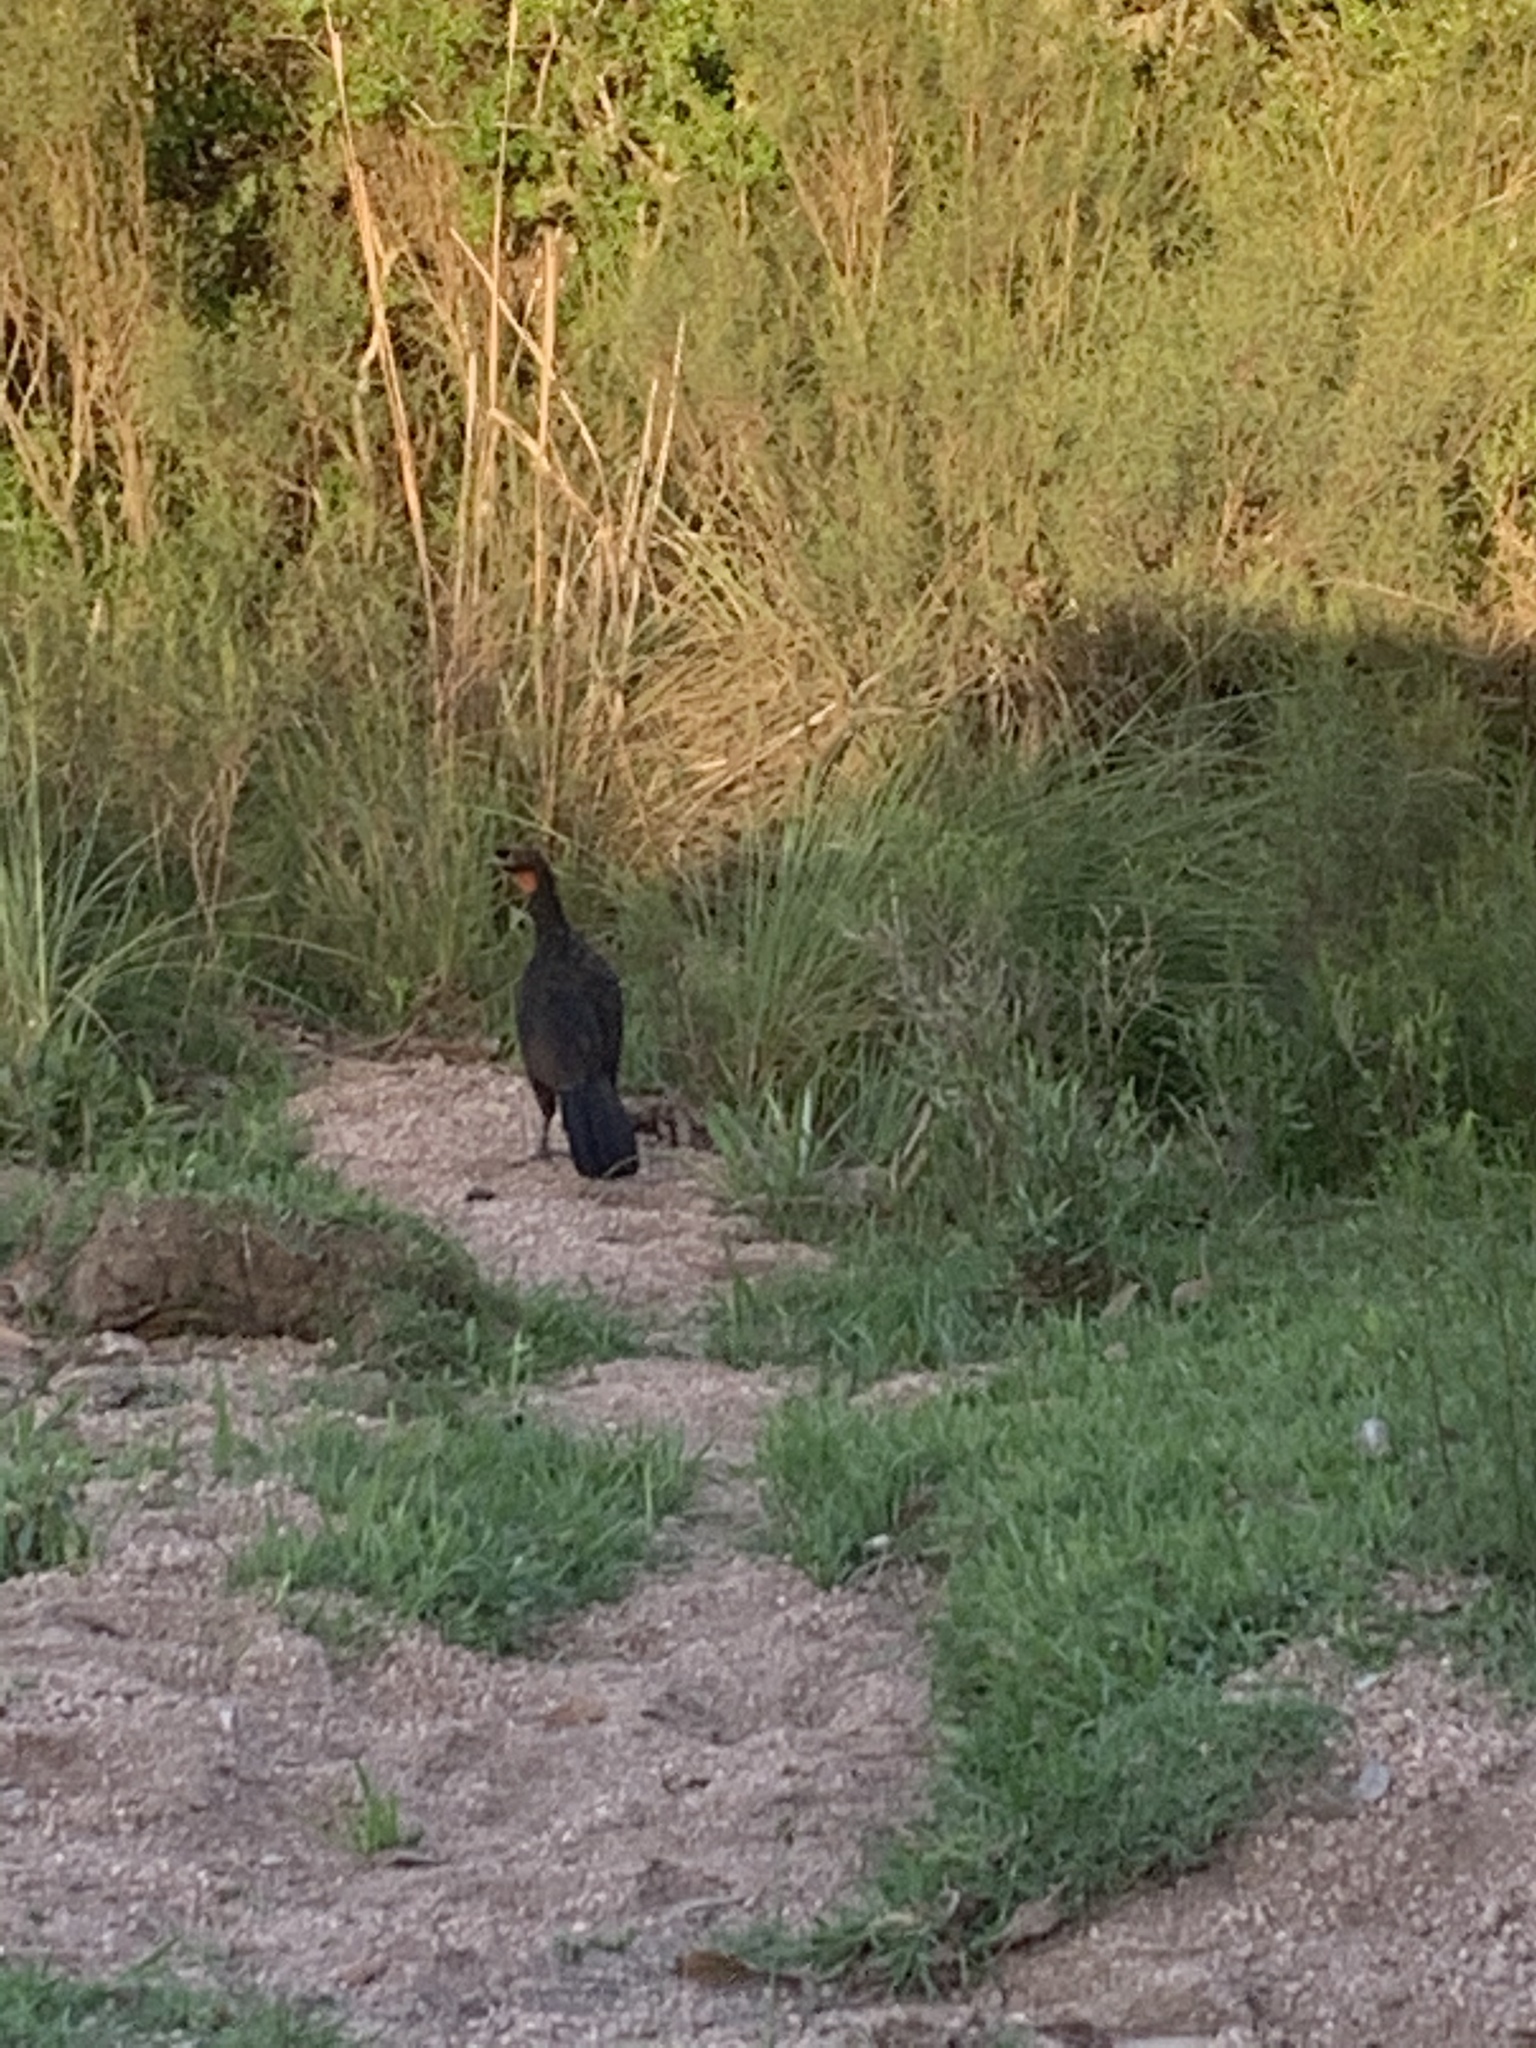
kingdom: Animalia
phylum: Chordata
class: Aves
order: Galliformes
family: Cracidae
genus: Penelope
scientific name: Penelope obscura
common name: Dusky-legged guan
